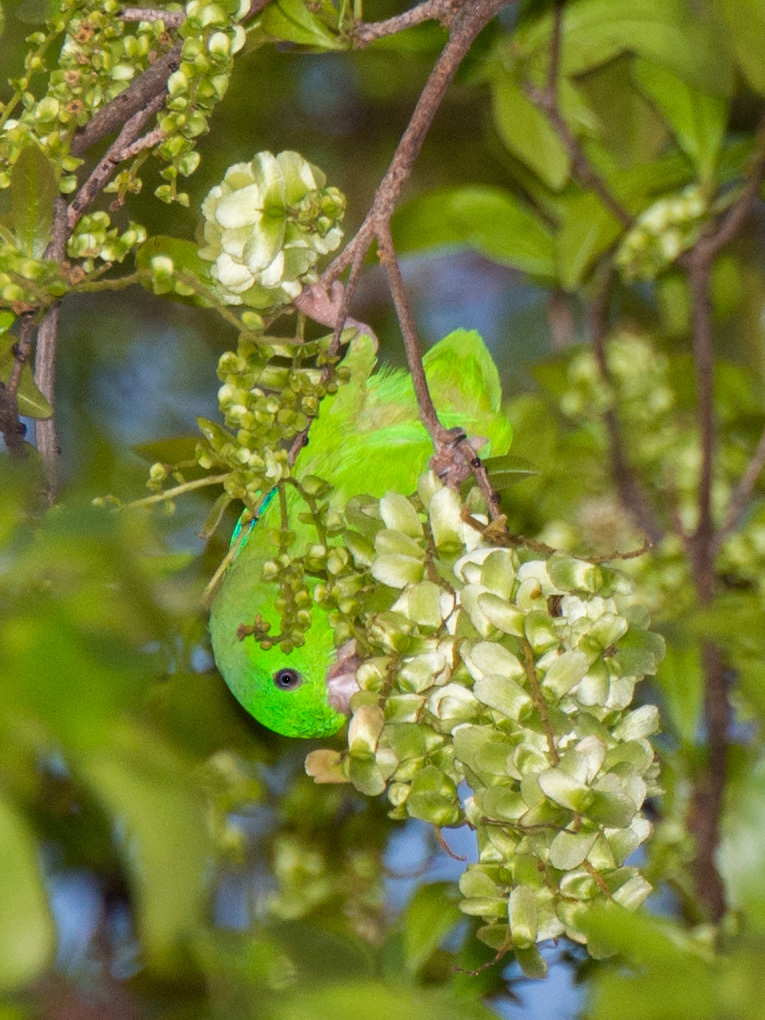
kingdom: Animalia
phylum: Chordata
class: Aves
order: Psittaciformes
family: Psittacidae
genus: Forpus
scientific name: Forpus passerinus
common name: Green-rumped parrotlet
